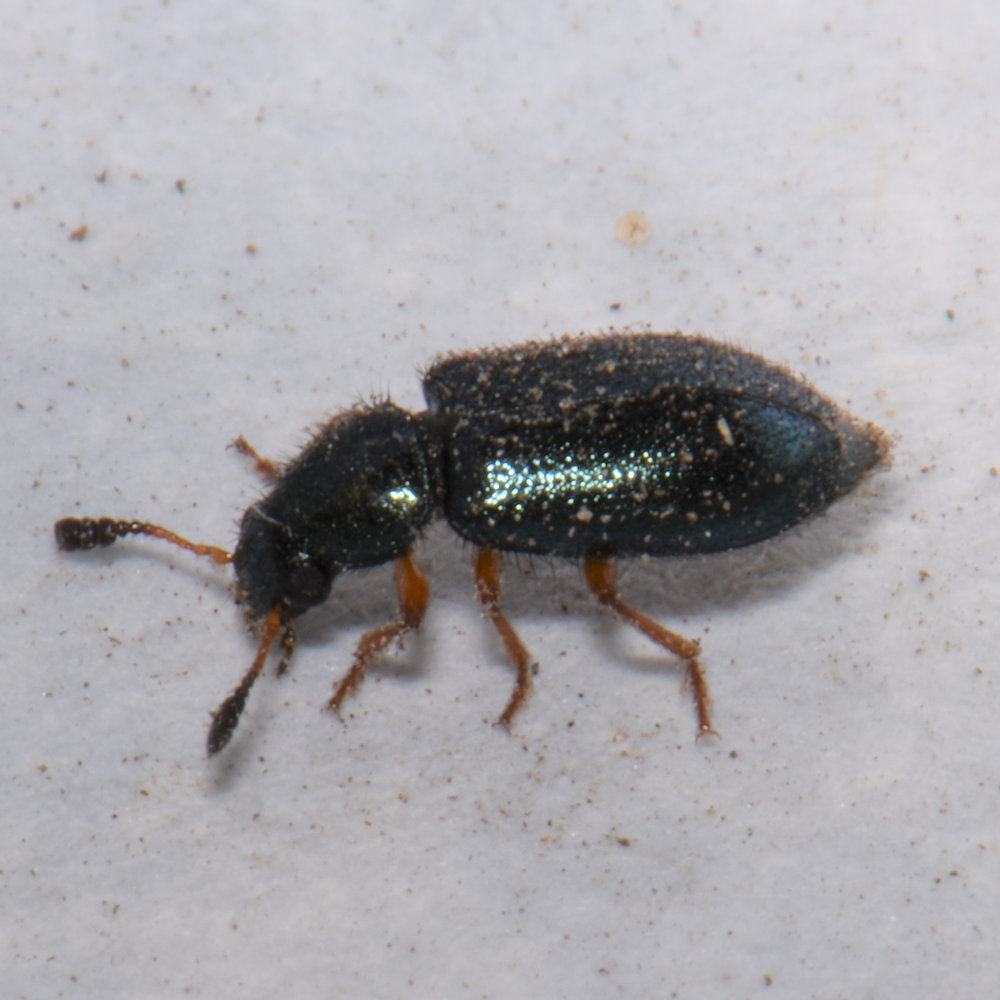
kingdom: Animalia
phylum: Arthropoda
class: Insecta
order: Coleoptera
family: Cleridae
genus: Necrobia
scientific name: Necrobia rufipes
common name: Red-legged ham beetle
